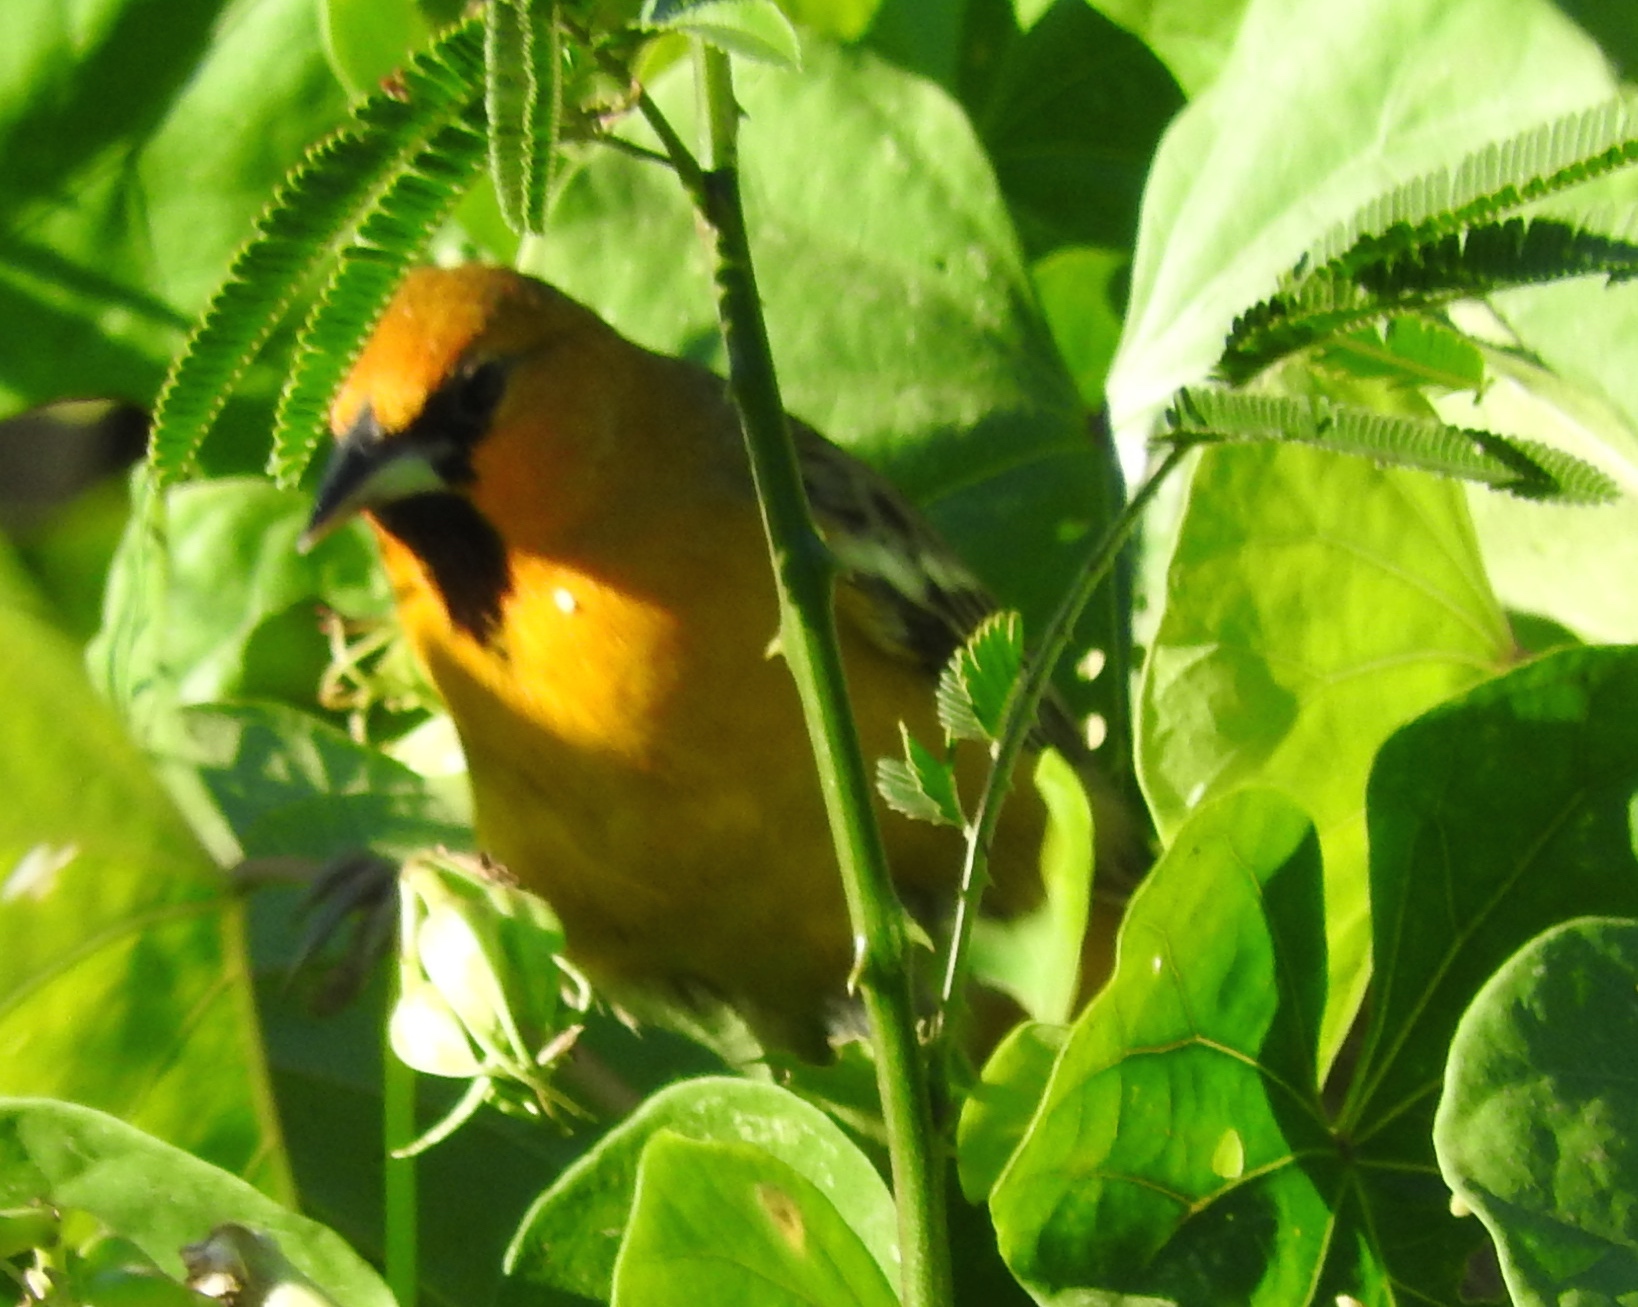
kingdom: Animalia
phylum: Chordata
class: Aves
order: Passeriformes
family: Icteridae
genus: Icterus
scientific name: Icterus pustulatus
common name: Streak-backed oriole
